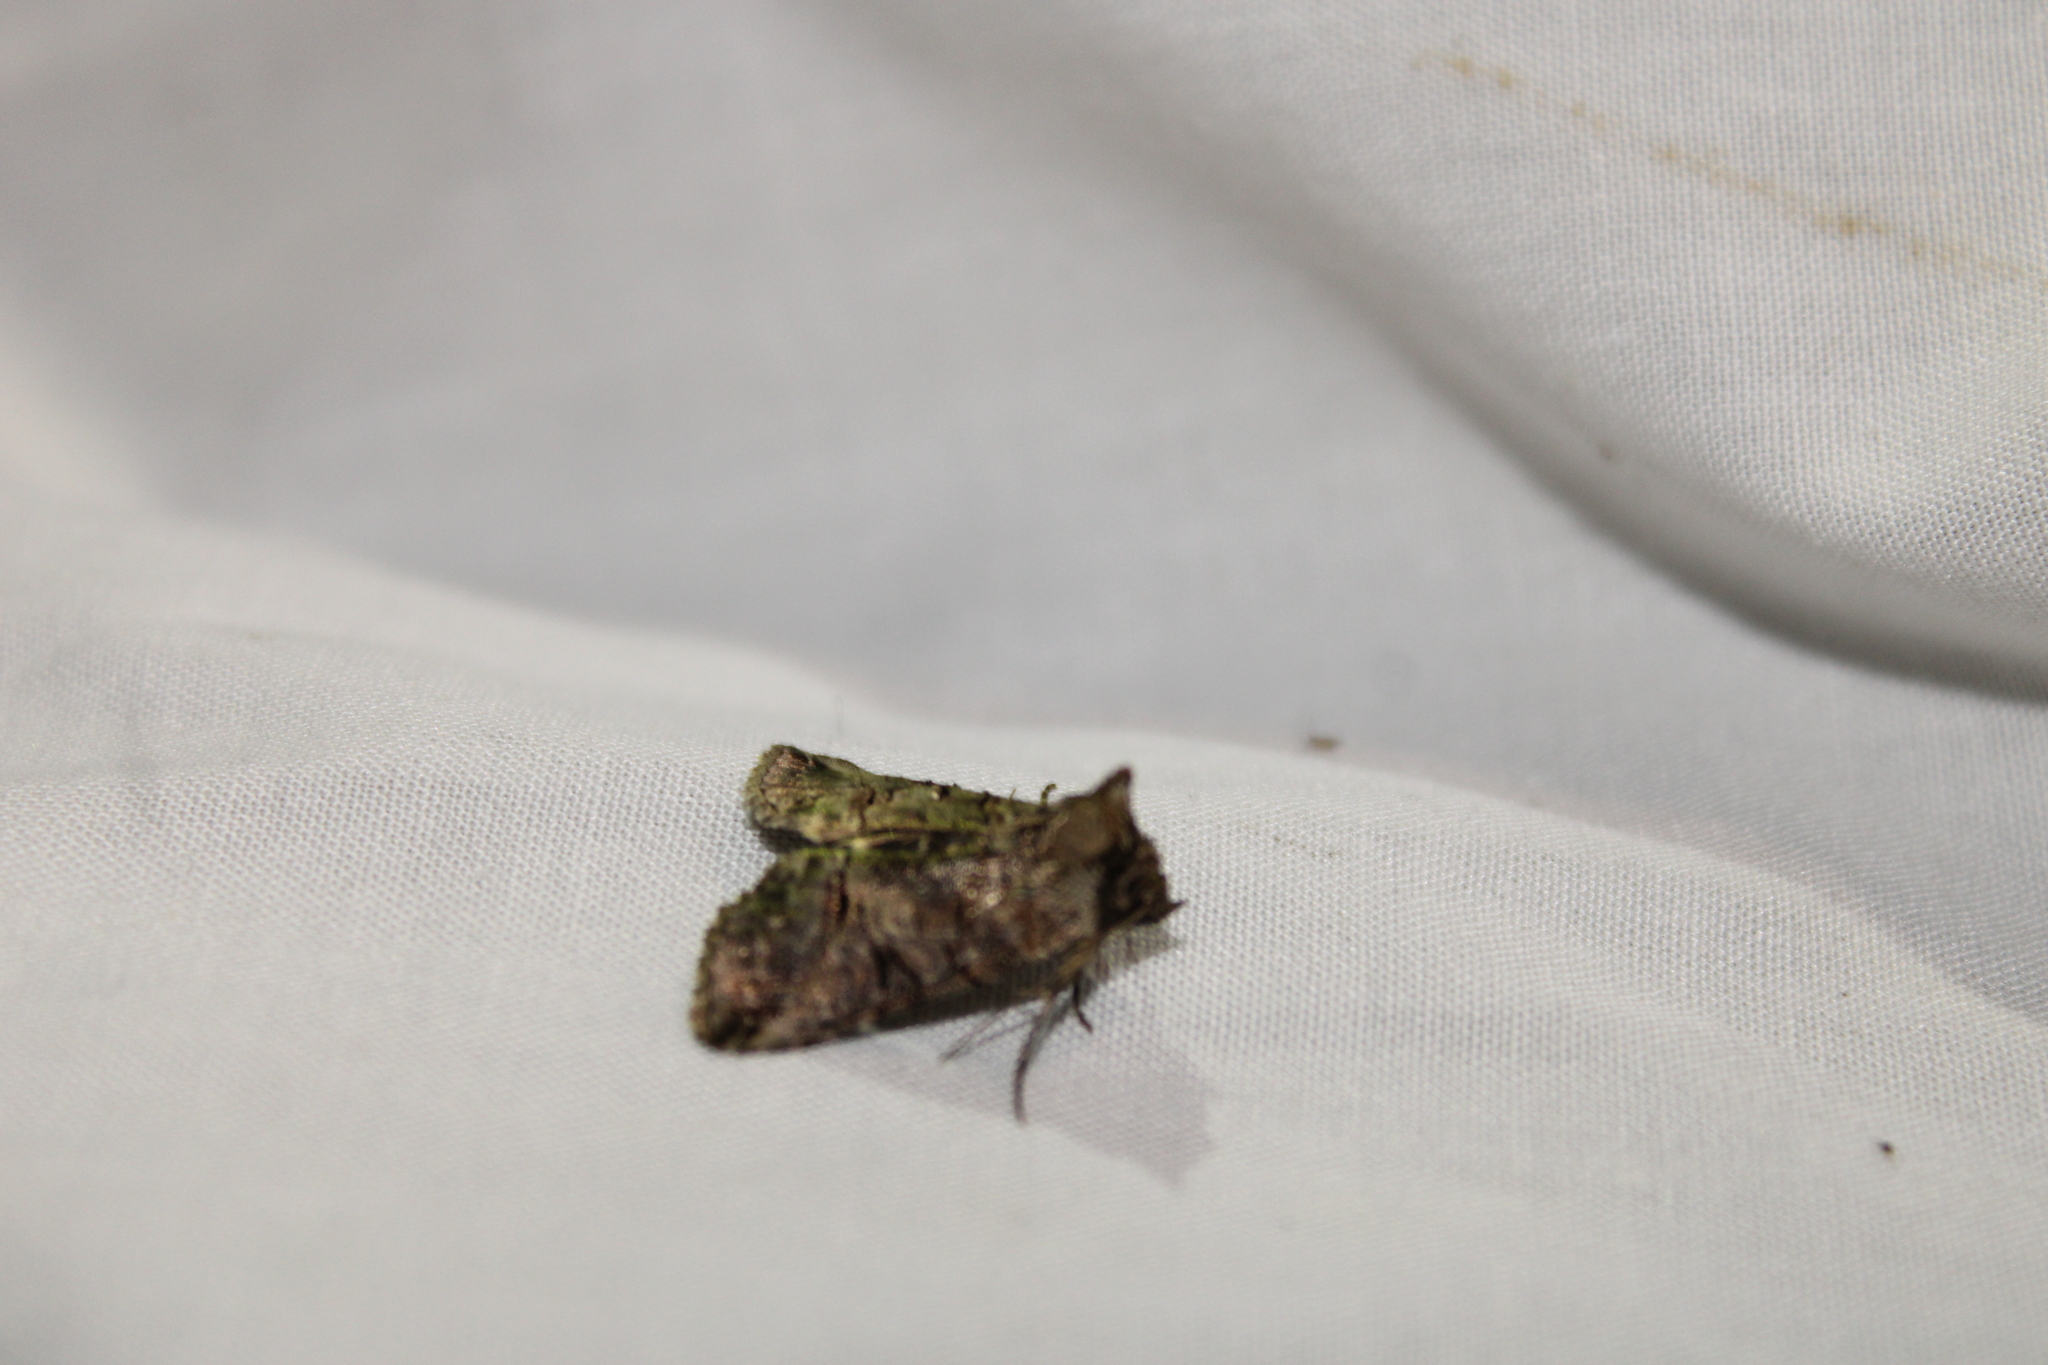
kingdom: Animalia
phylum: Arthropoda
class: Insecta
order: Lepidoptera
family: Noctuidae
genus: Abrostola
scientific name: Abrostola urentis
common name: Spectacled nettle moth
